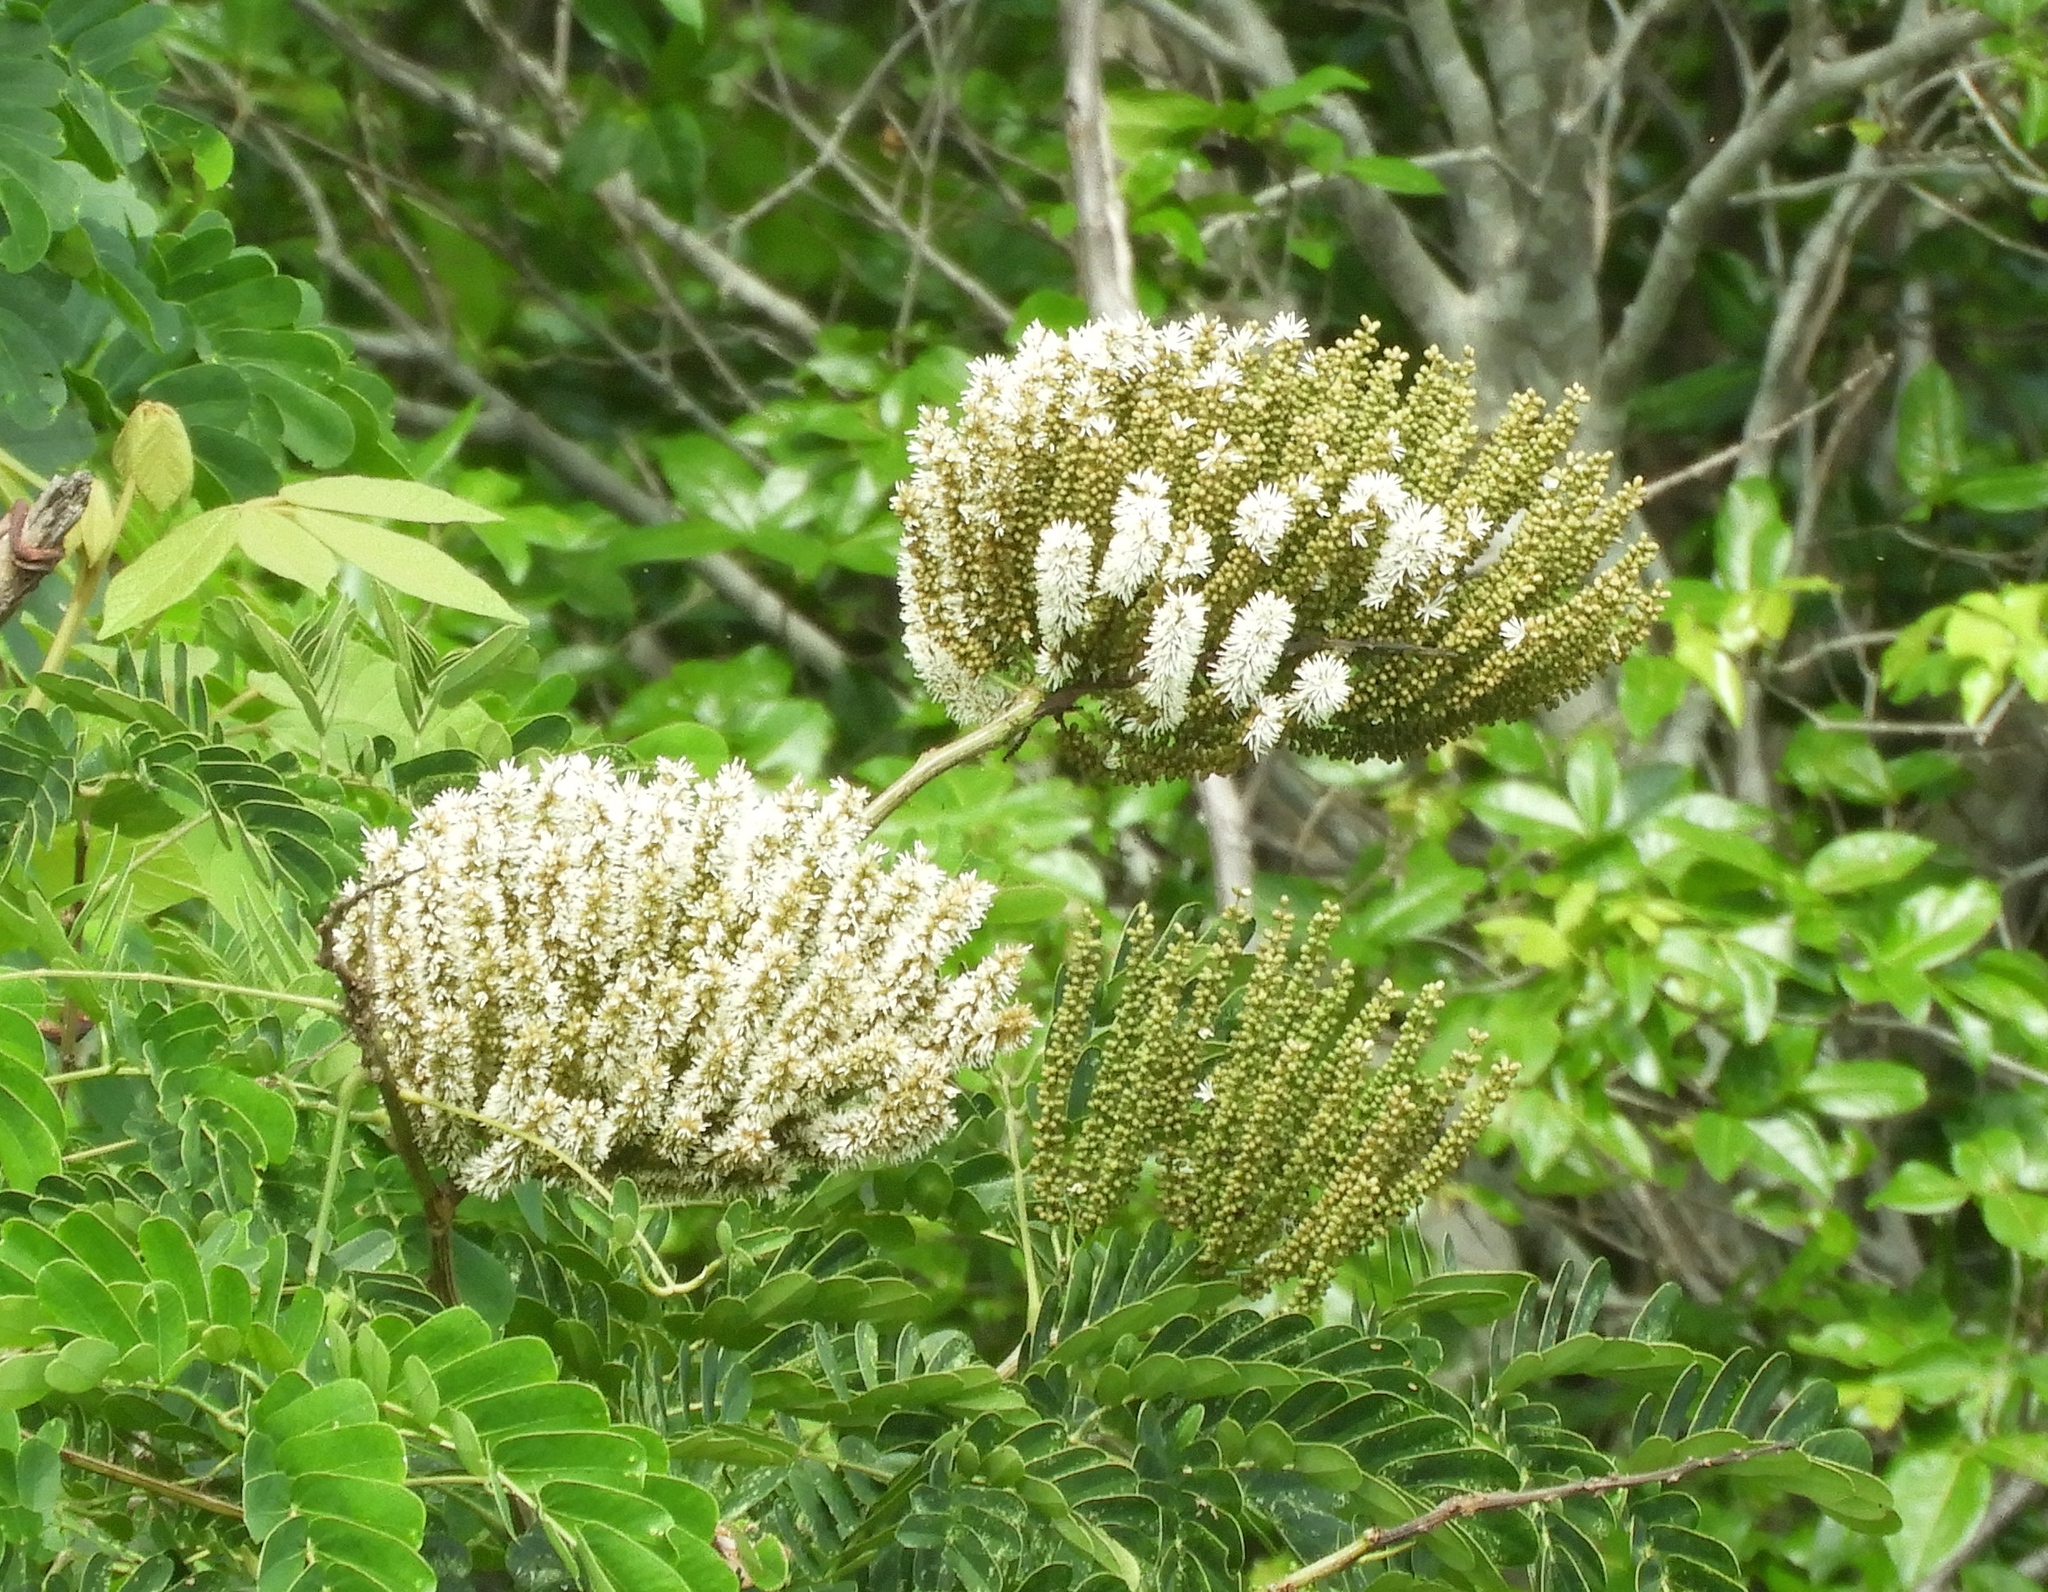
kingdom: Plantae
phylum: Tracheophyta
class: Magnoliopsida
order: Fabales
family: Fabaceae
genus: Entada
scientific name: Entada polystachya
